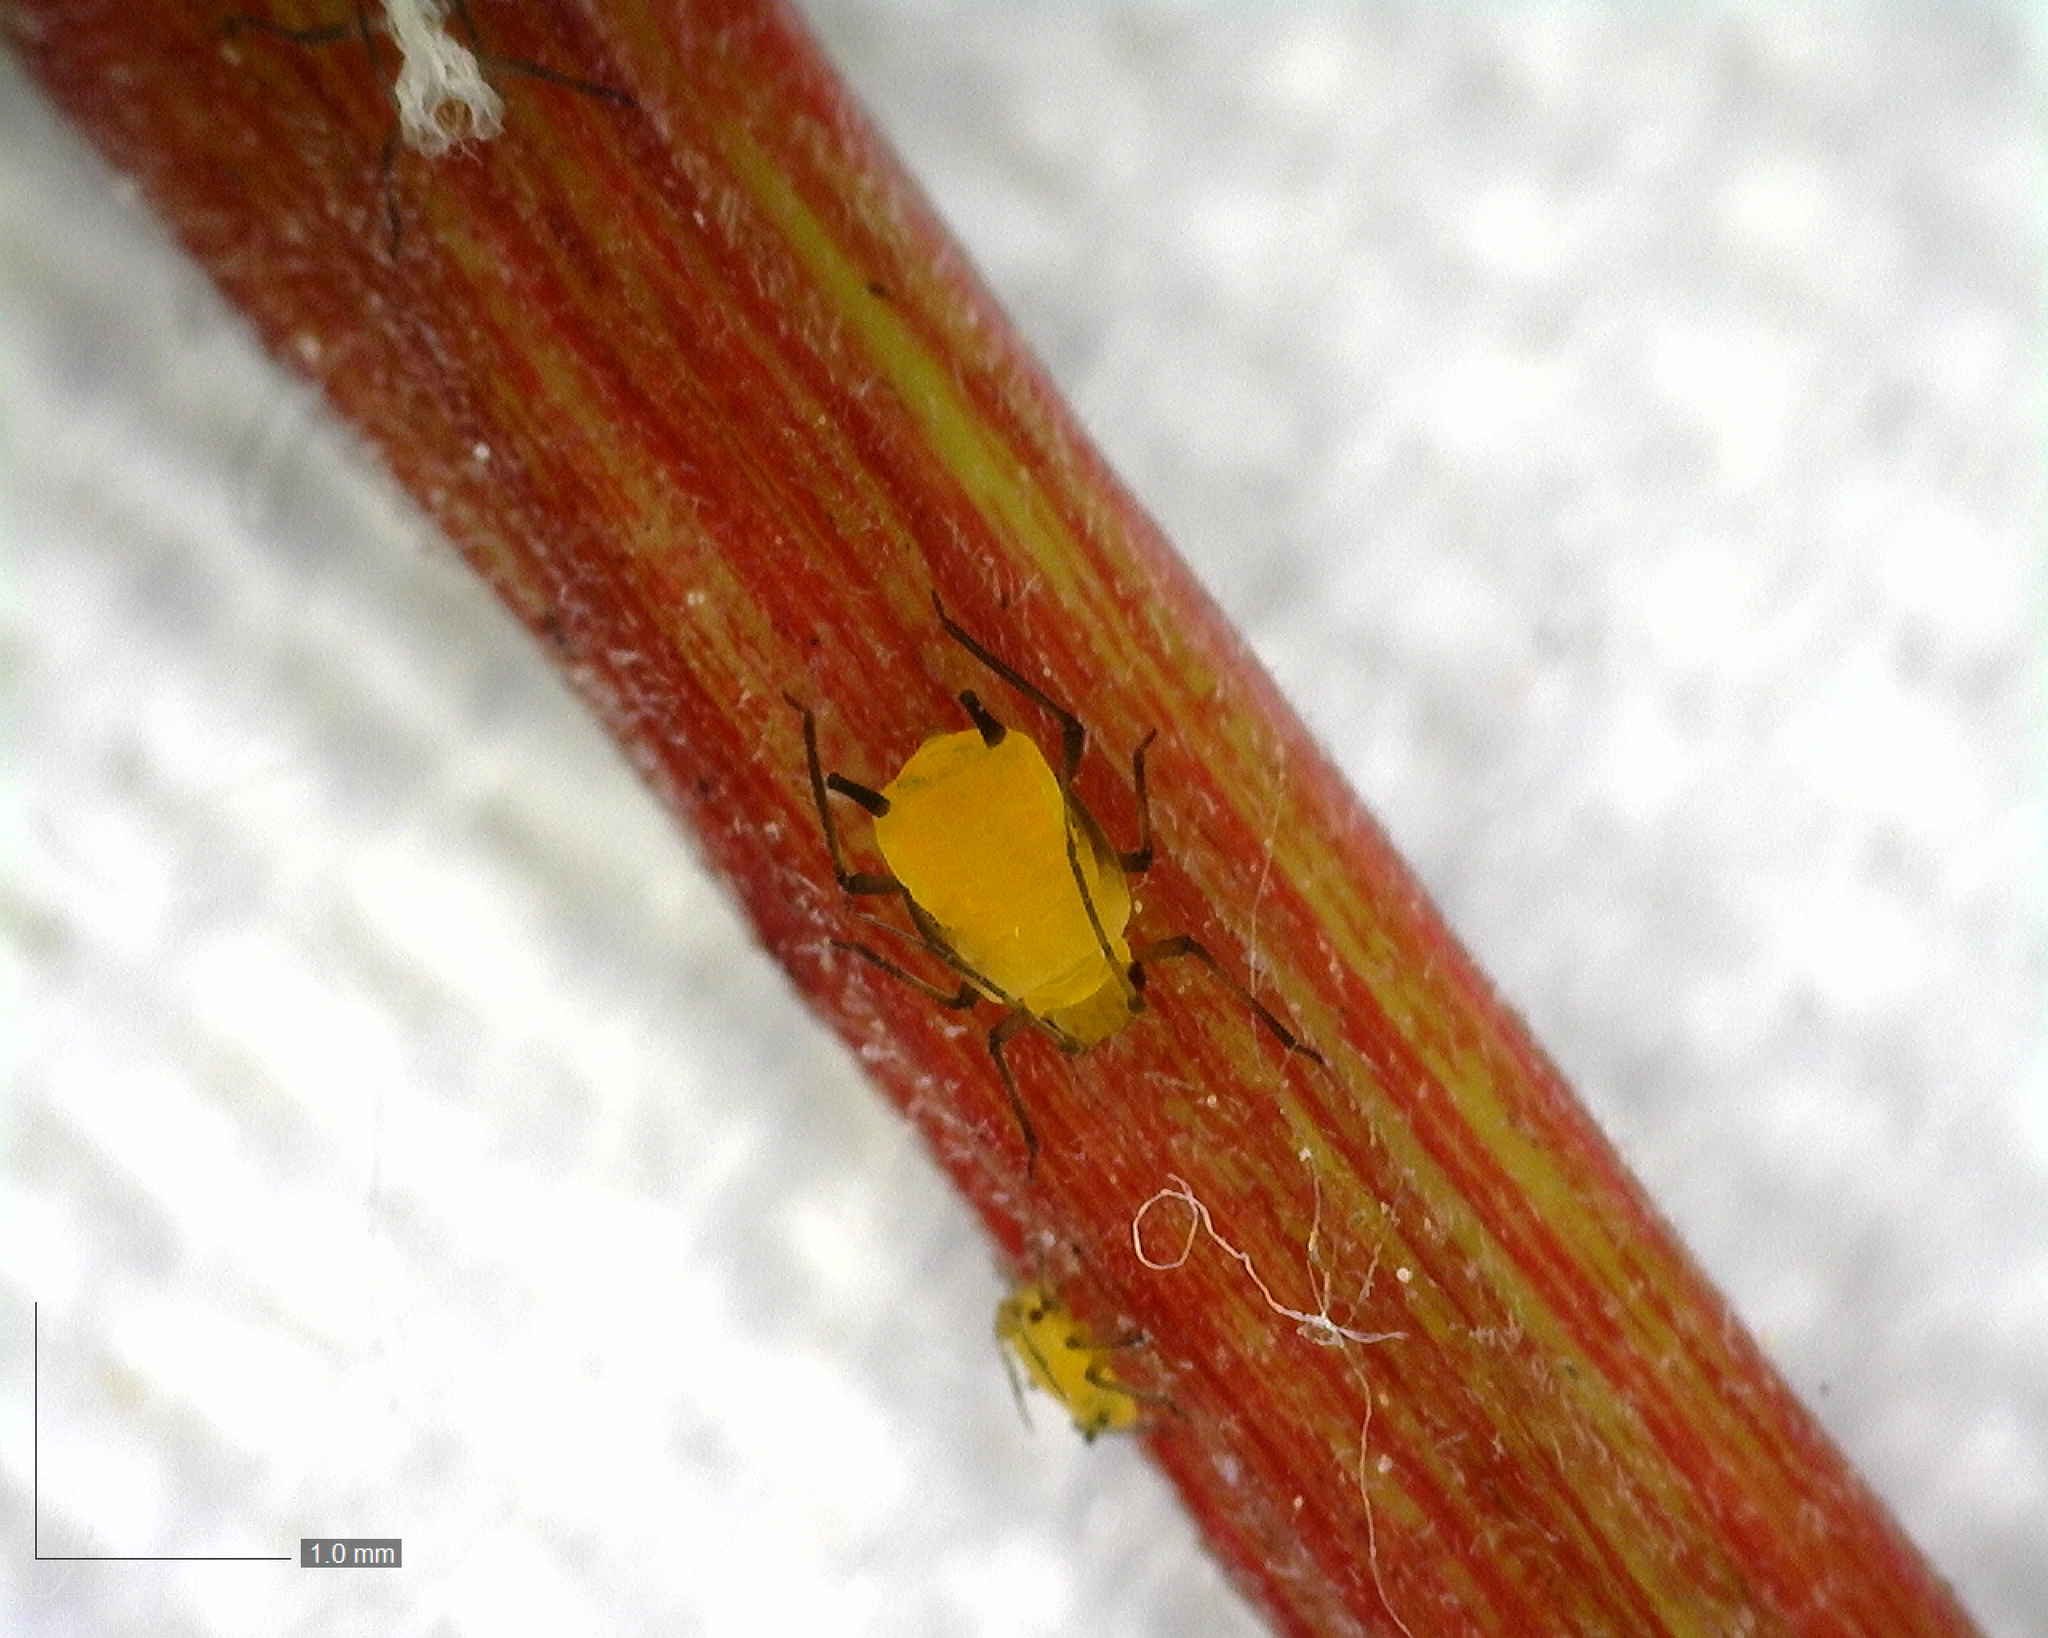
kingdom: Animalia
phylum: Arthropoda
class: Insecta
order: Hemiptera
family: Aphididae
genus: Aphis
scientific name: Aphis nerii
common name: Oleander aphid
